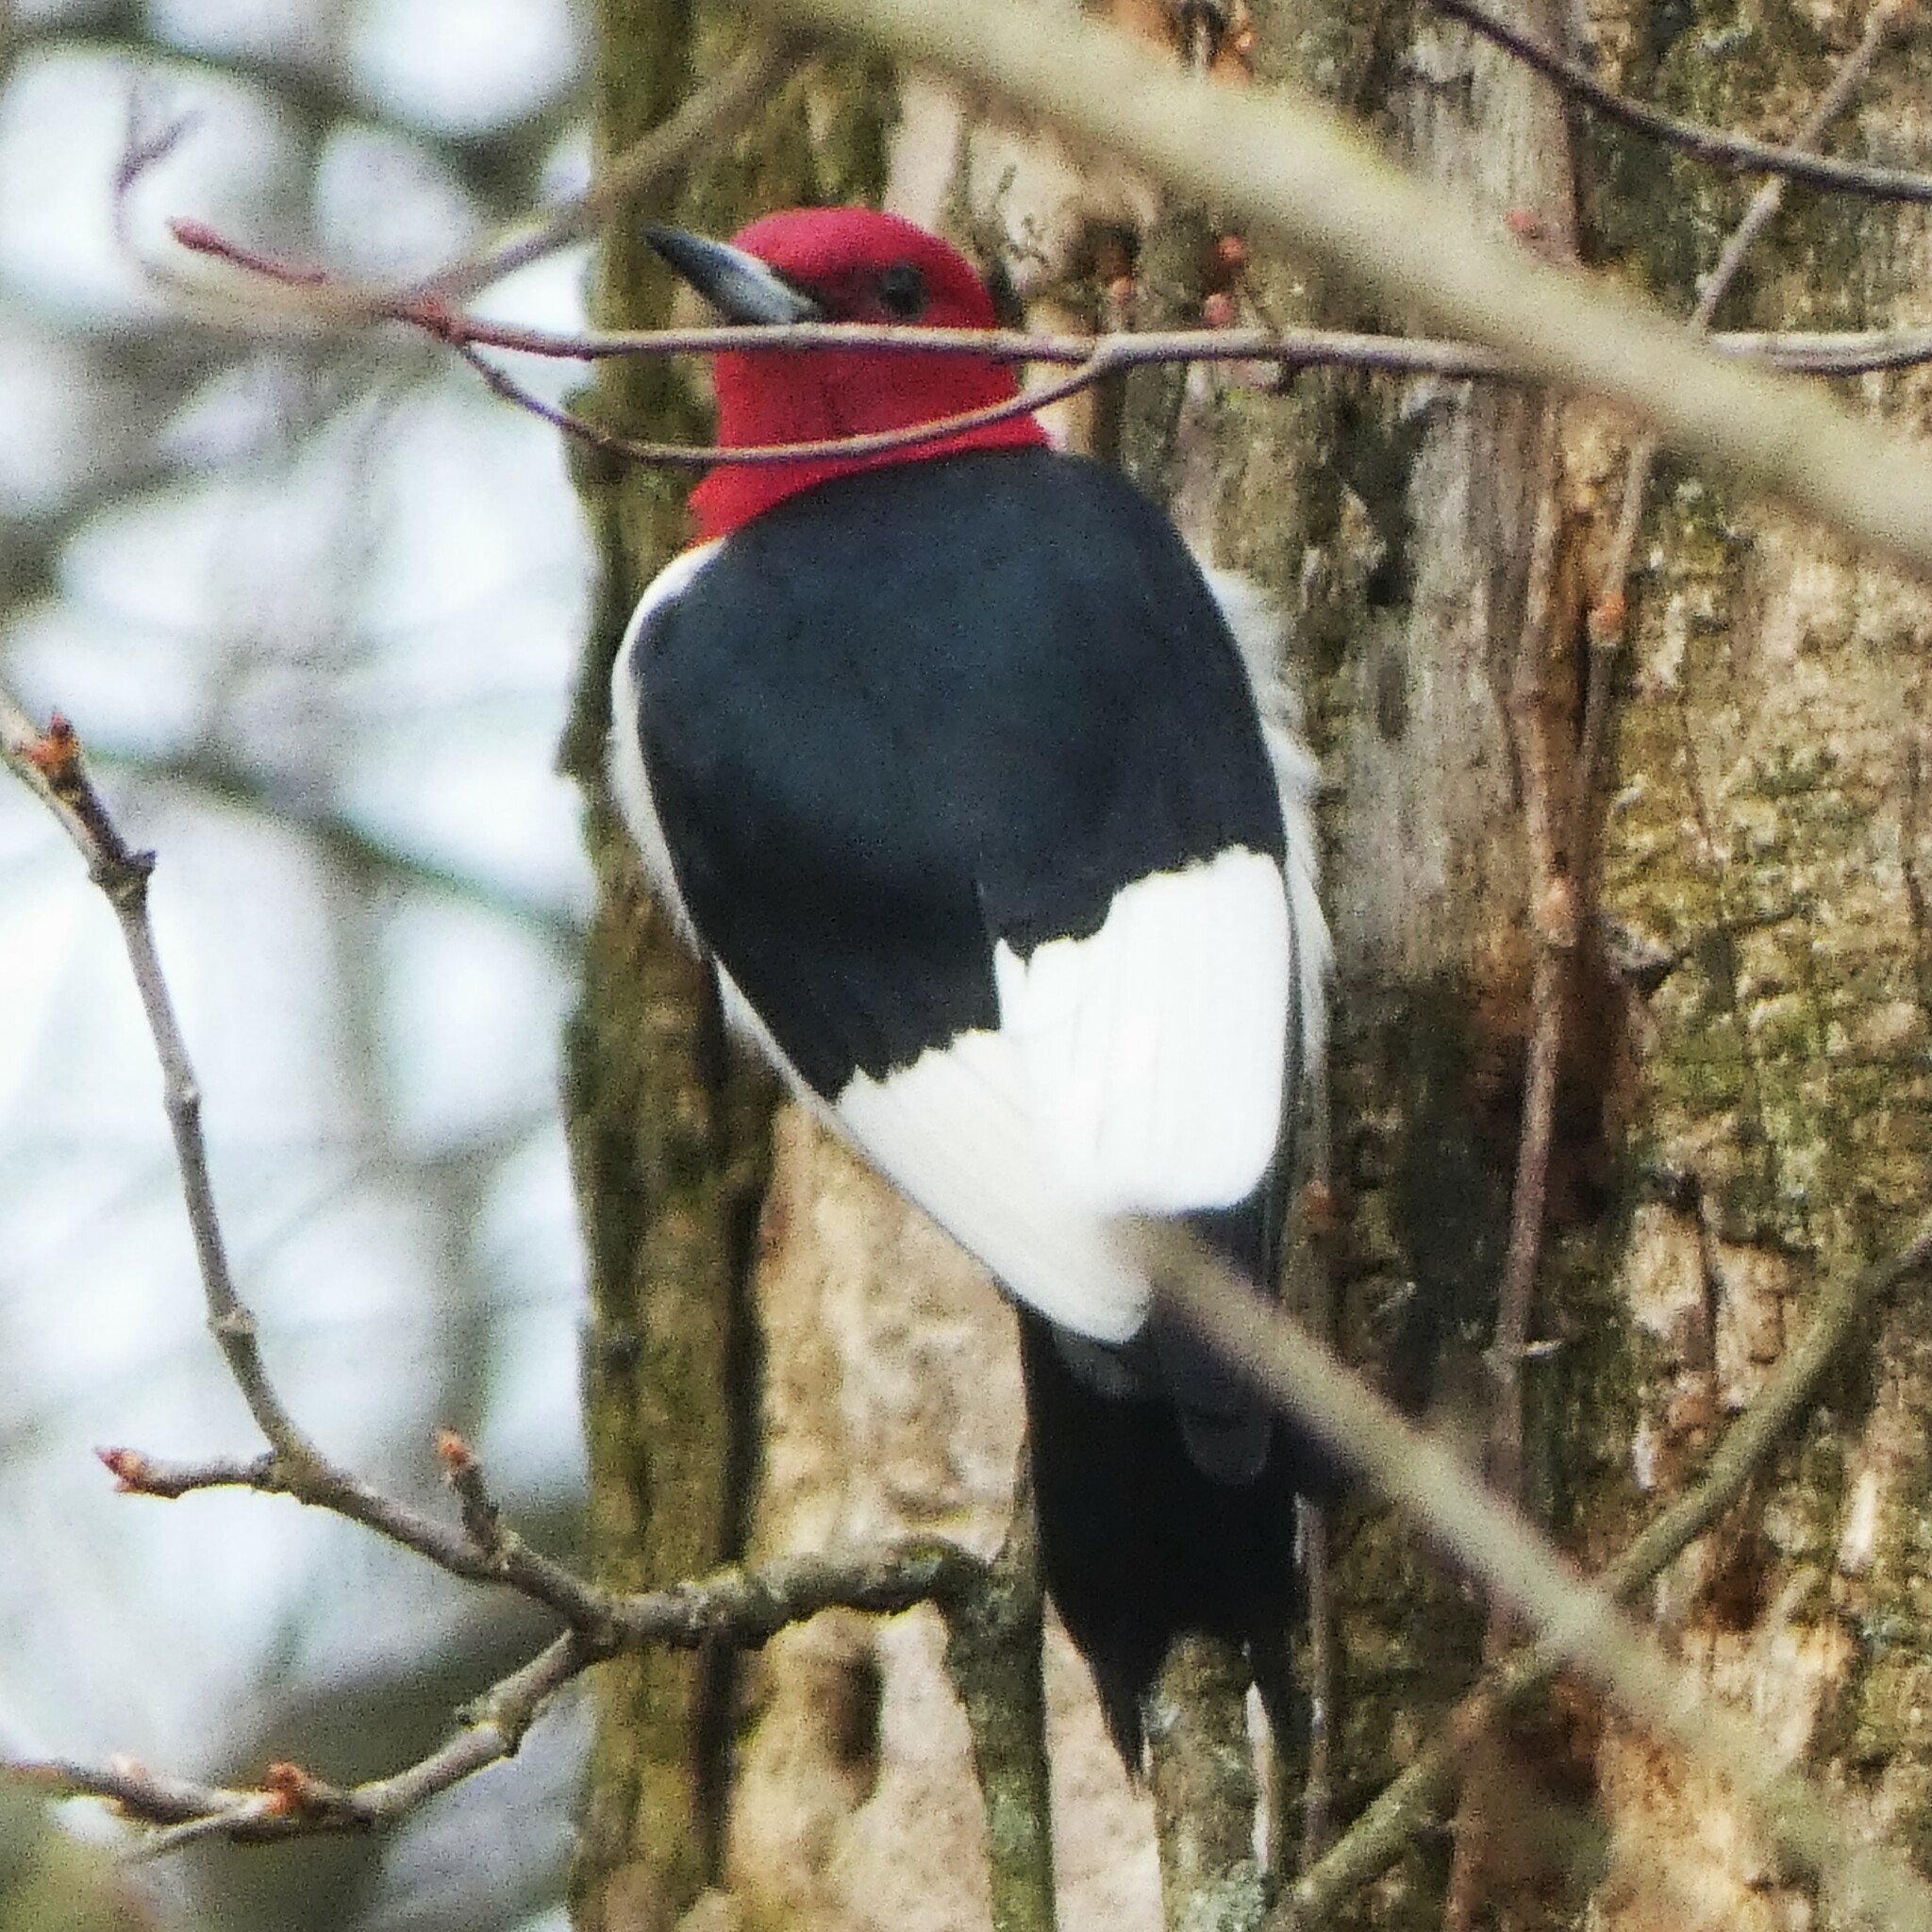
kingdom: Animalia
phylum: Chordata
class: Aves
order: Piciformes
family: Picidae
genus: Melanerpes
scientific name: Melanerpes erythrocephalus
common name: Red-headed woodpecker
